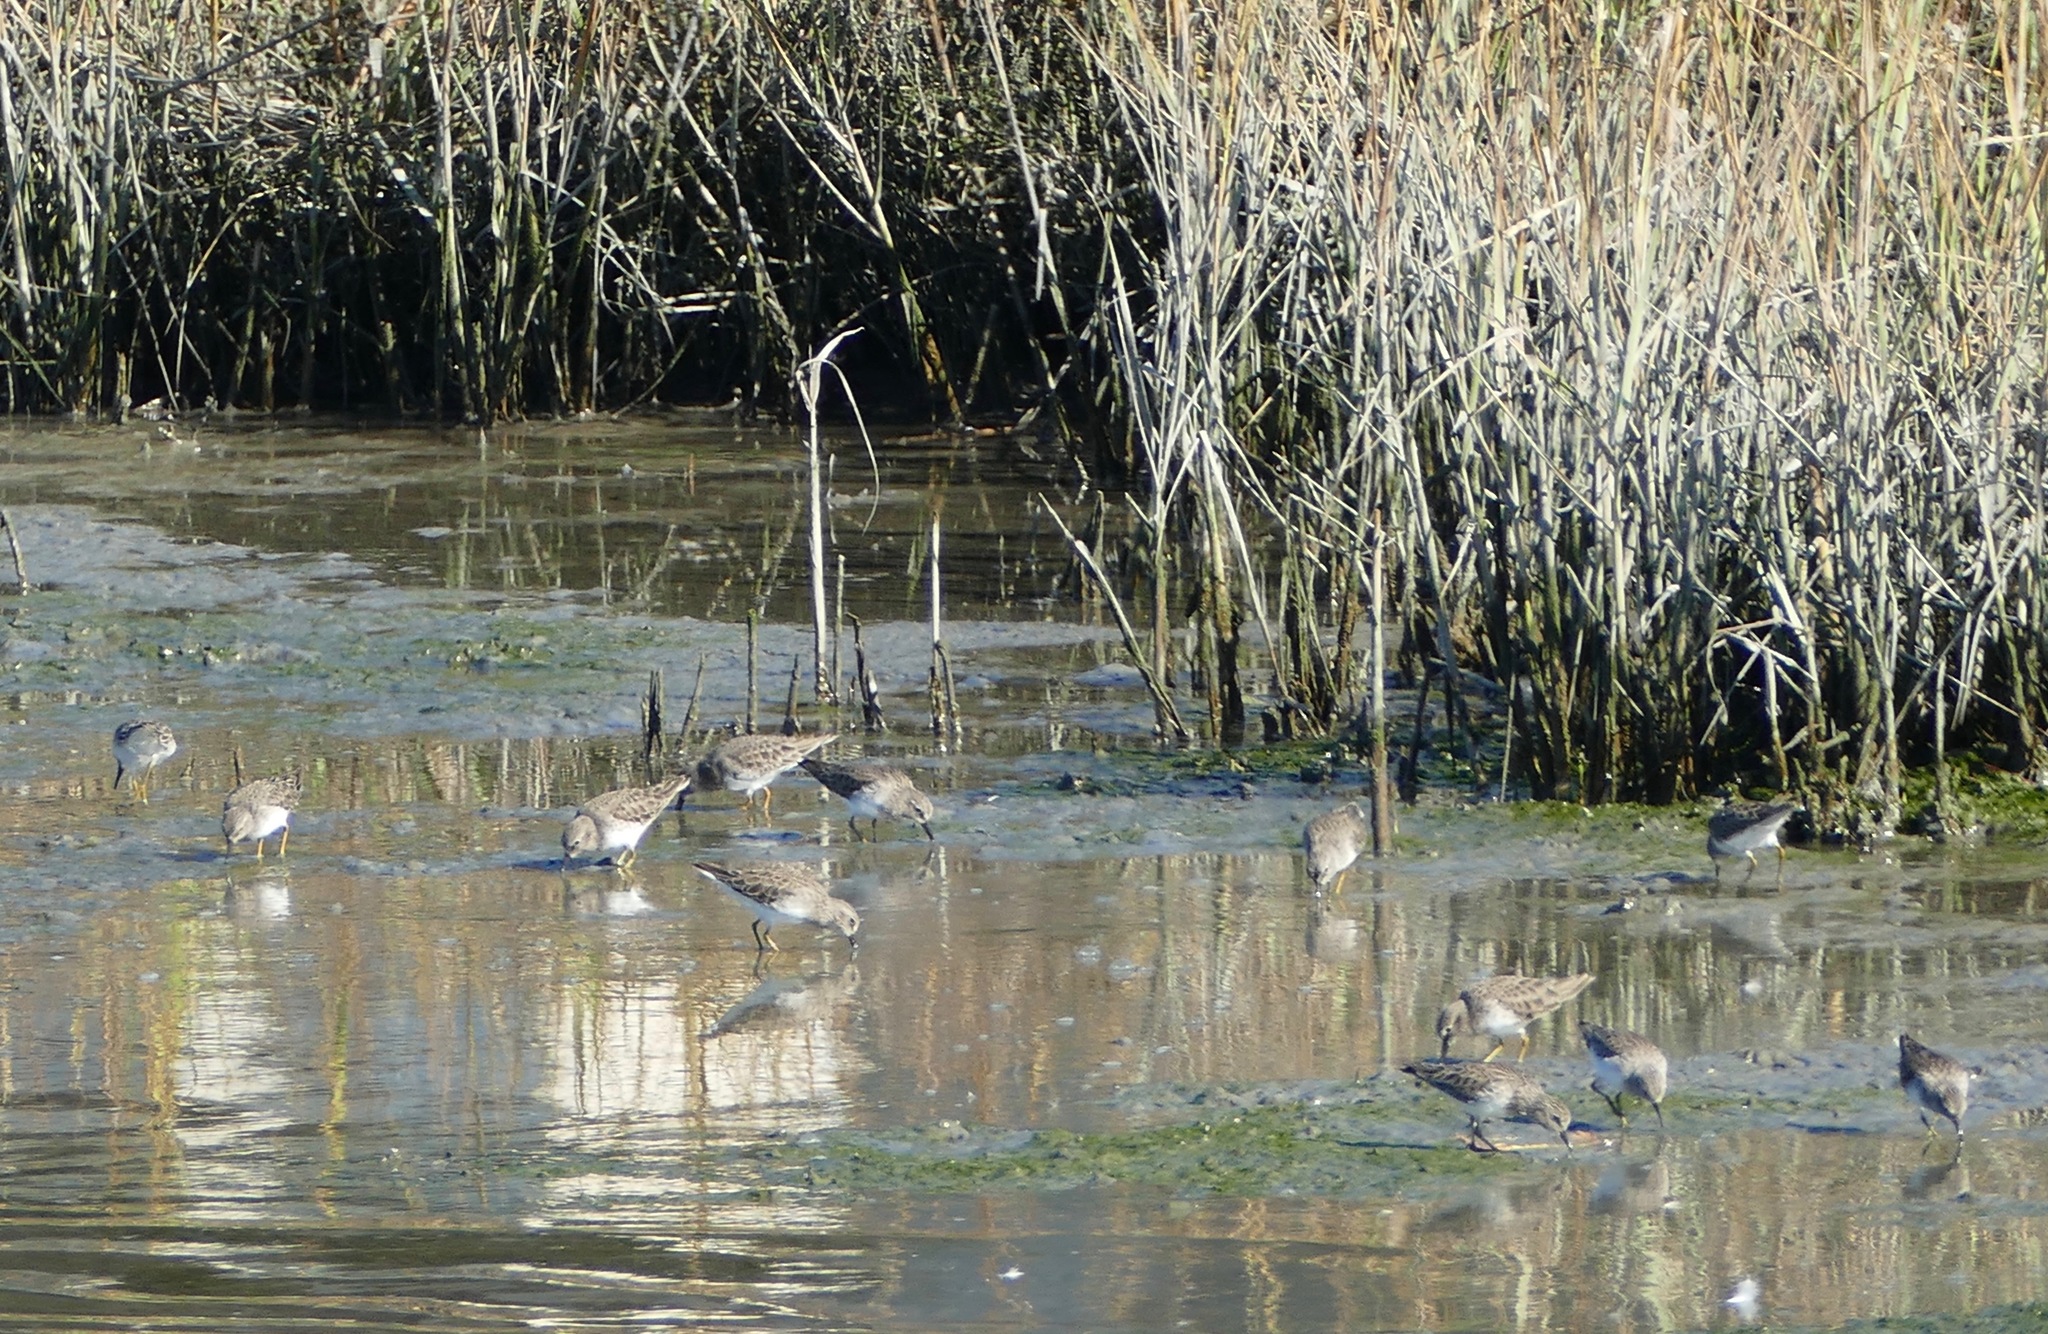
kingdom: Animalia
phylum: Chordata
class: Aves
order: Charadriiformes
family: Scolopacidae
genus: Calidris
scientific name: Calidris minutilla
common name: Least sandpiper
